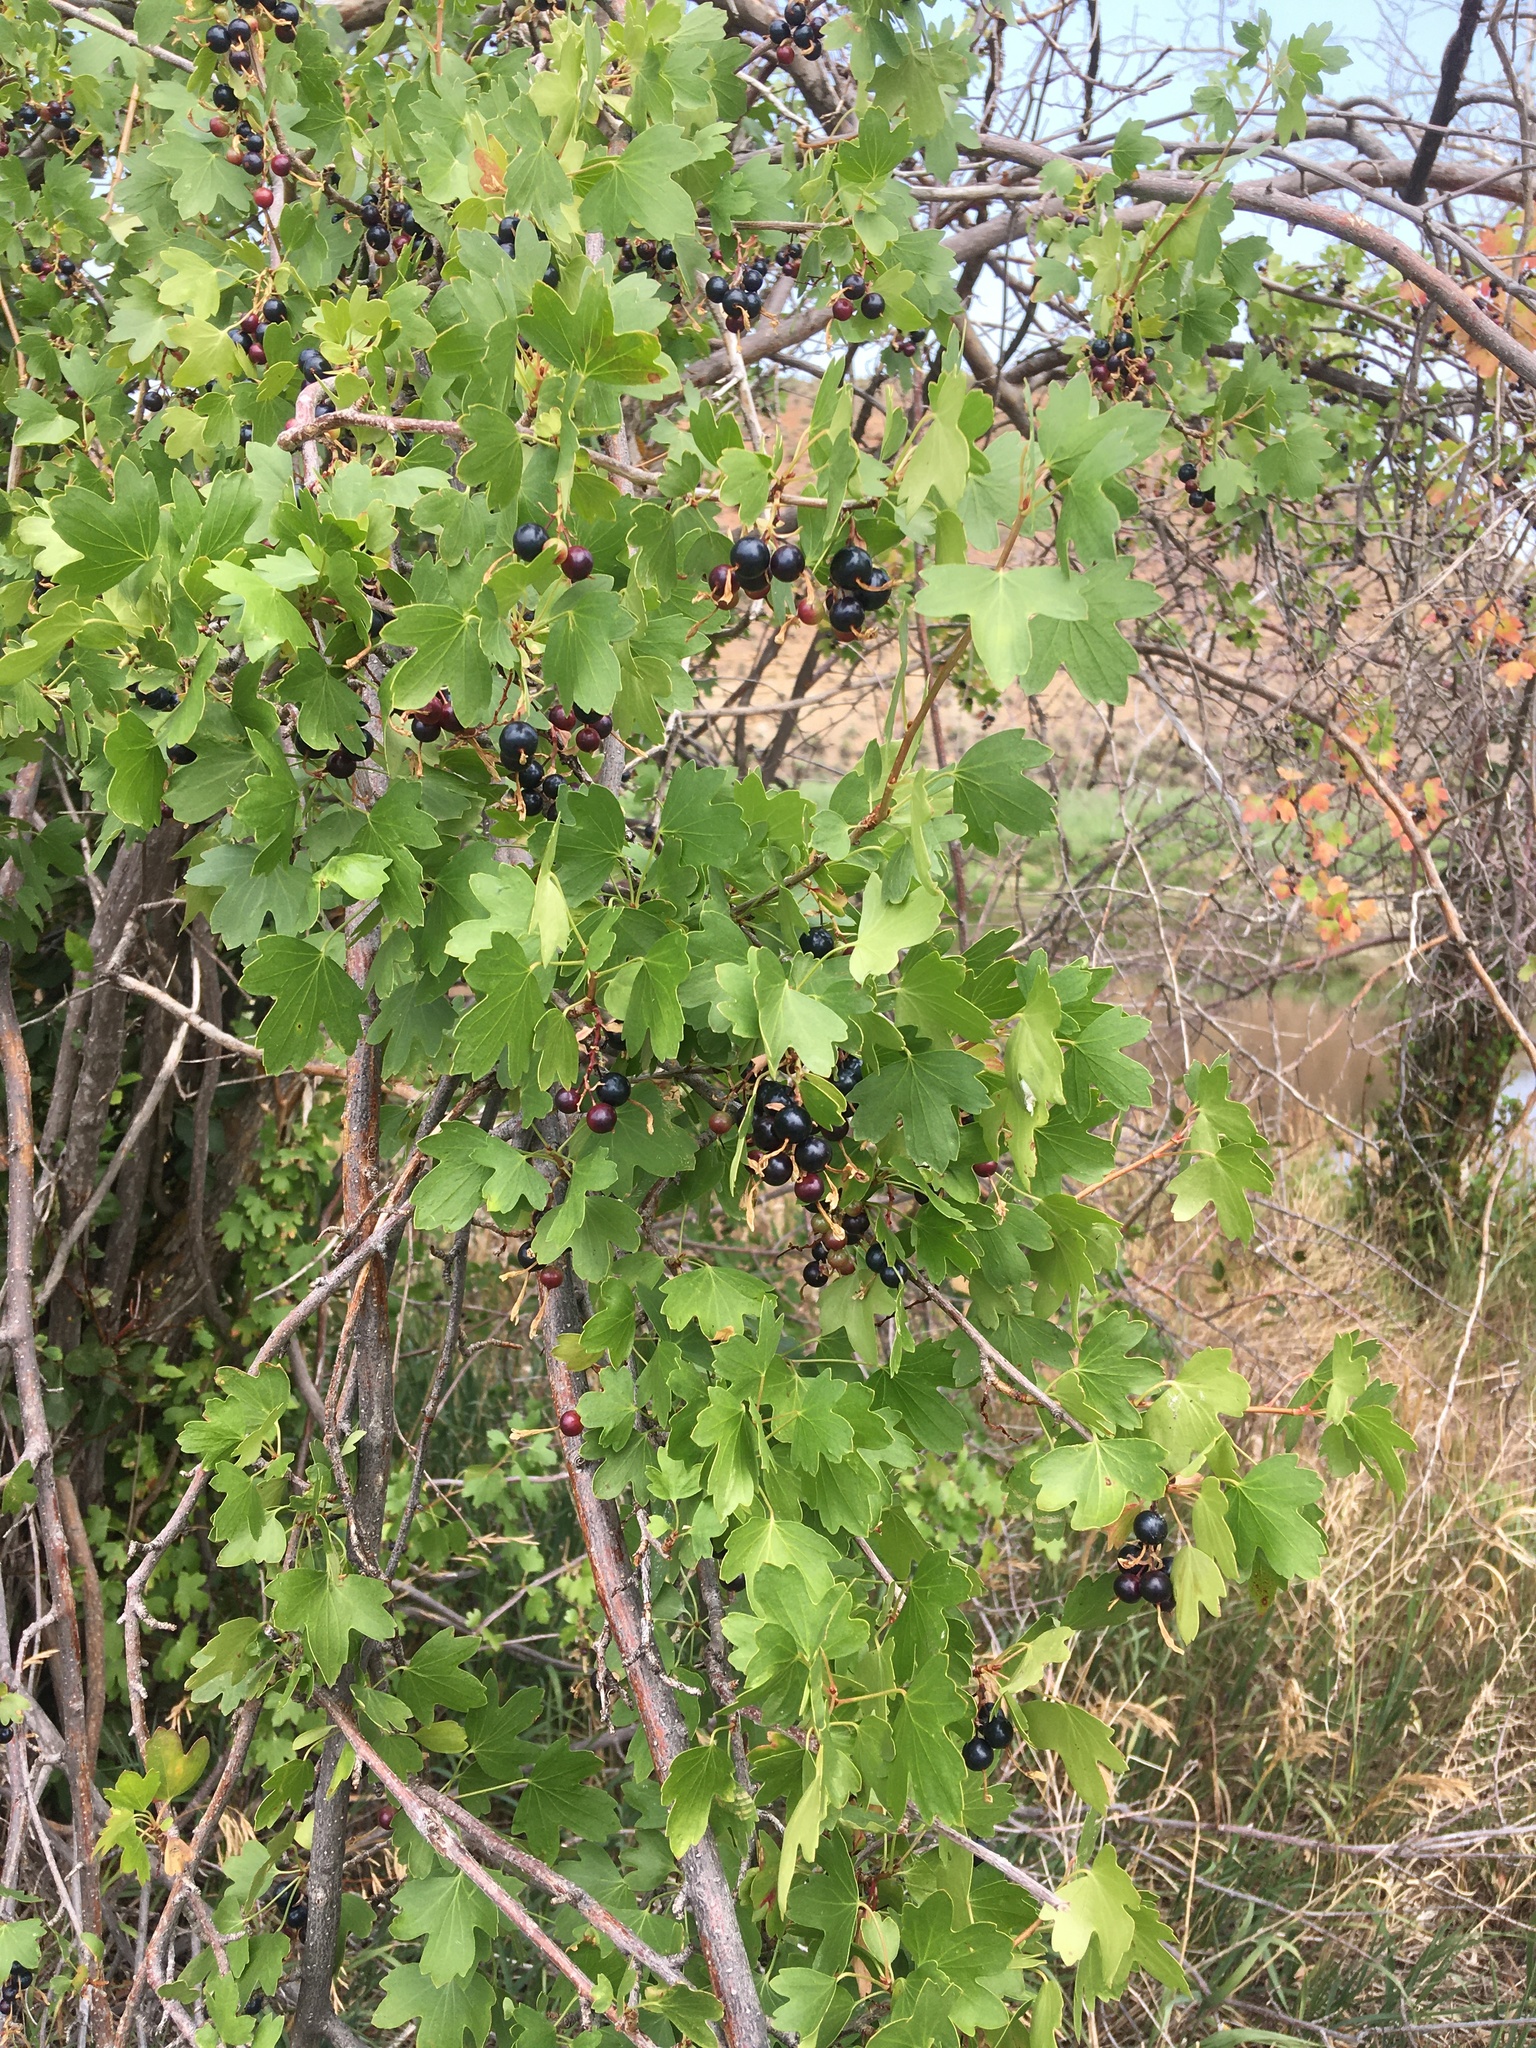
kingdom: Plantae
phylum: Tracheophyta
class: Magnoliopsida
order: Saxifragales
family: Grossulariaceae
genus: Ribes
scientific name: Ribes aureum
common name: Golden currant
